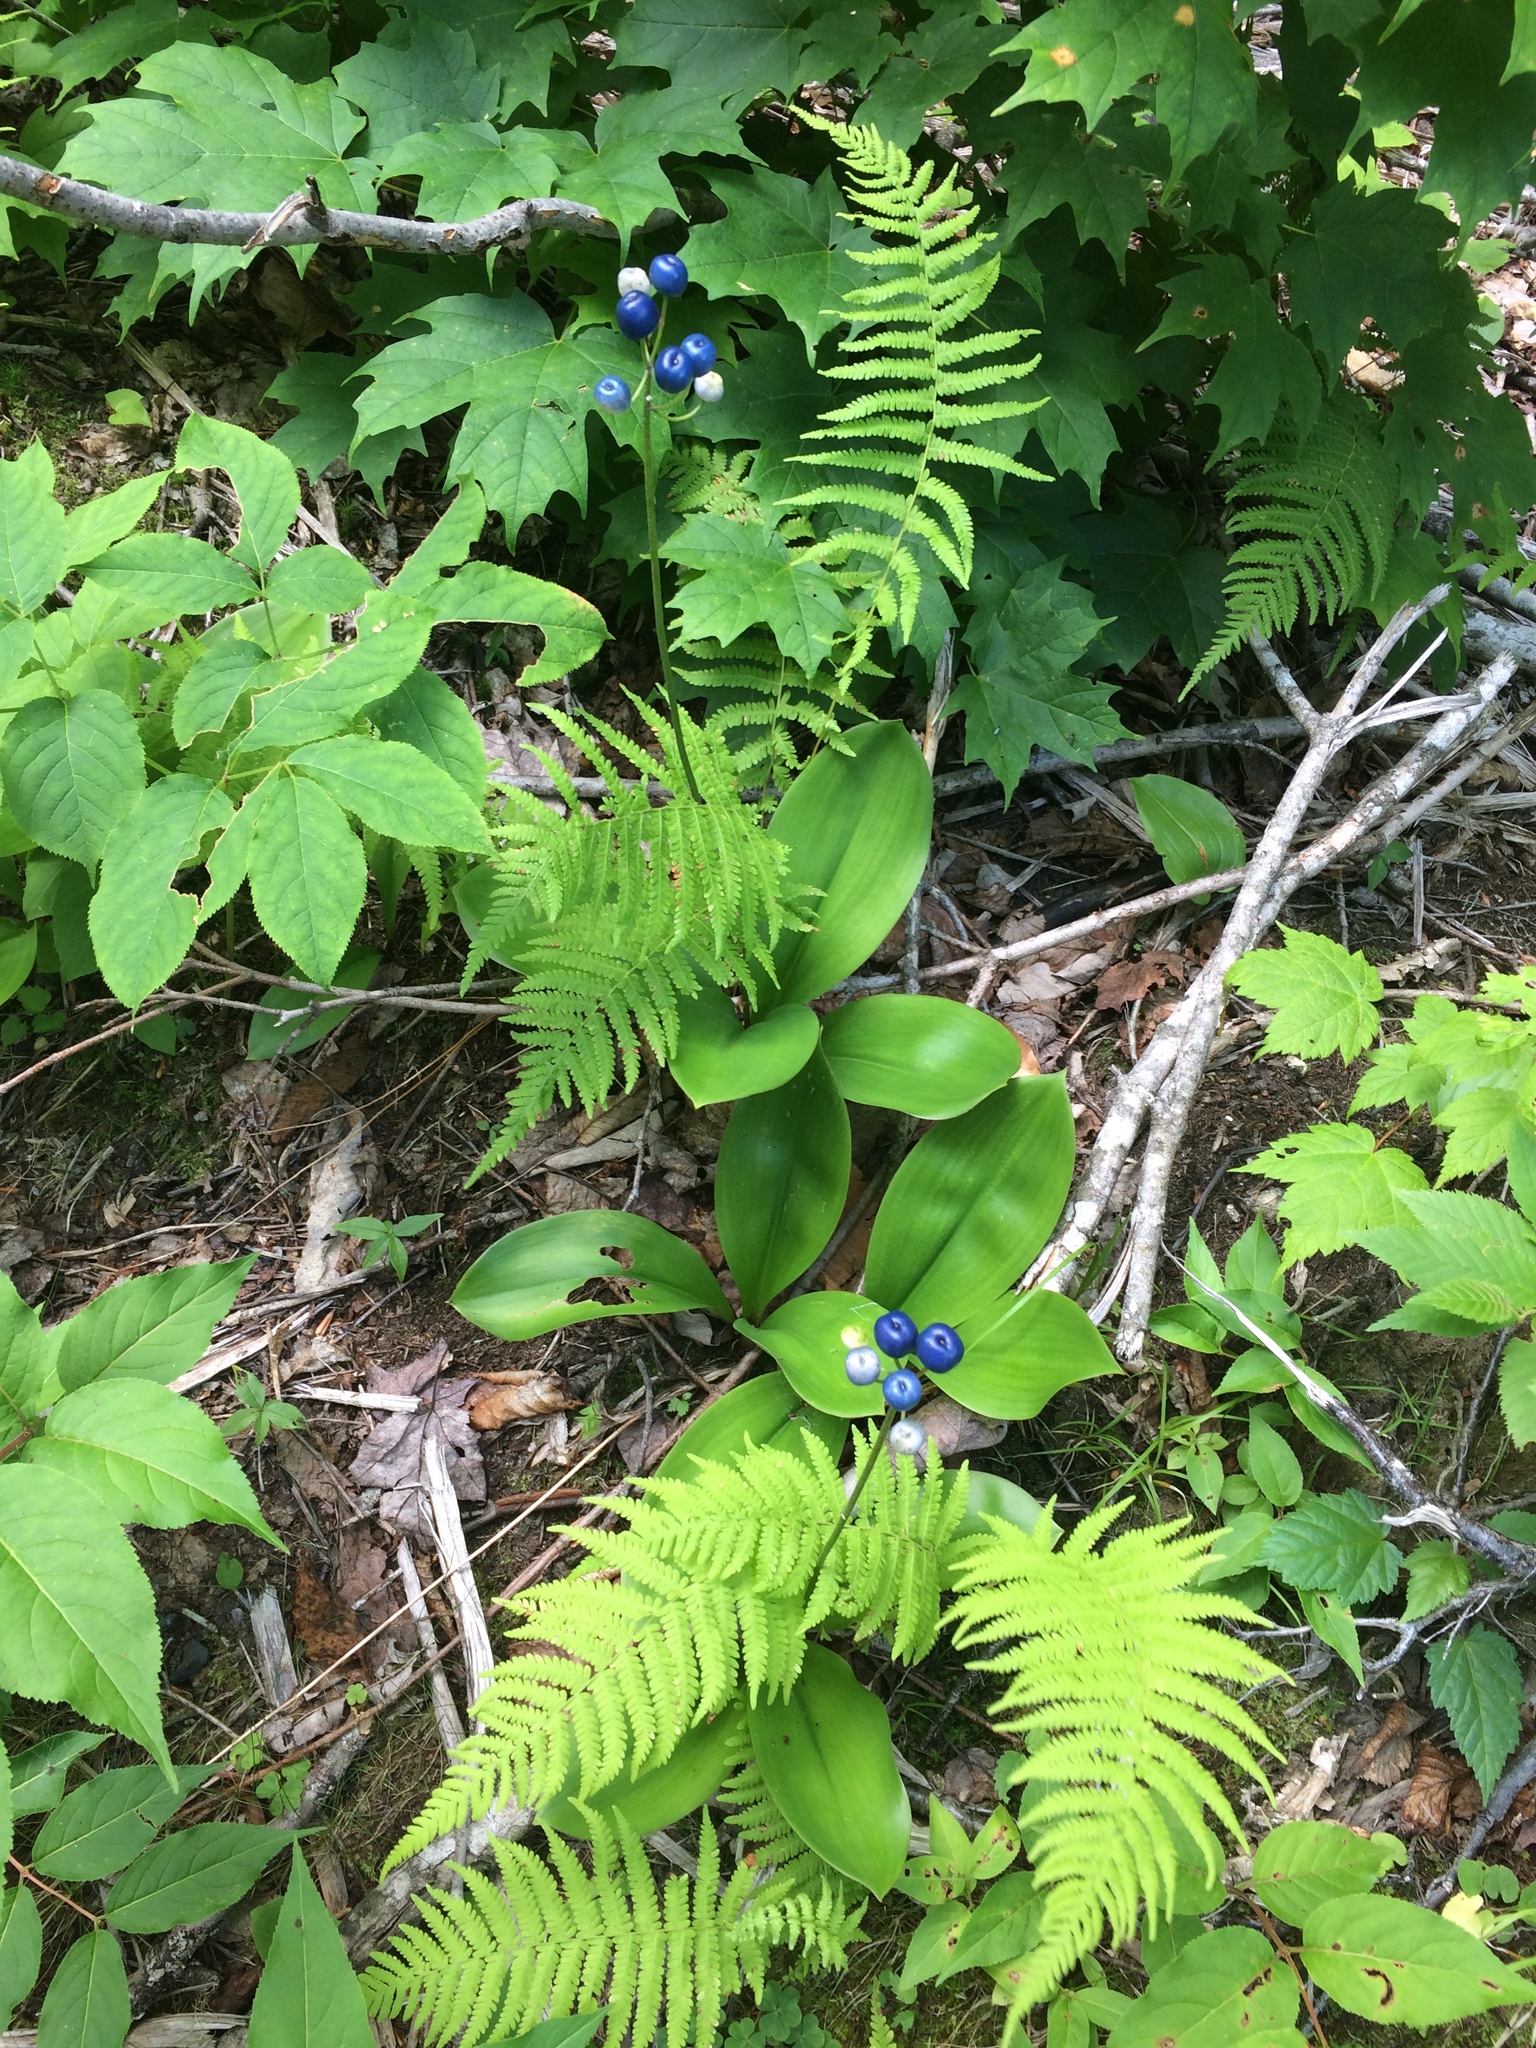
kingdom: Plantae
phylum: Tracheophyta
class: Liliopsida
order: Liliales
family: Liliaceae
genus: Clintonia
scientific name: Clintonia borealis
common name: Yellow clintonia
